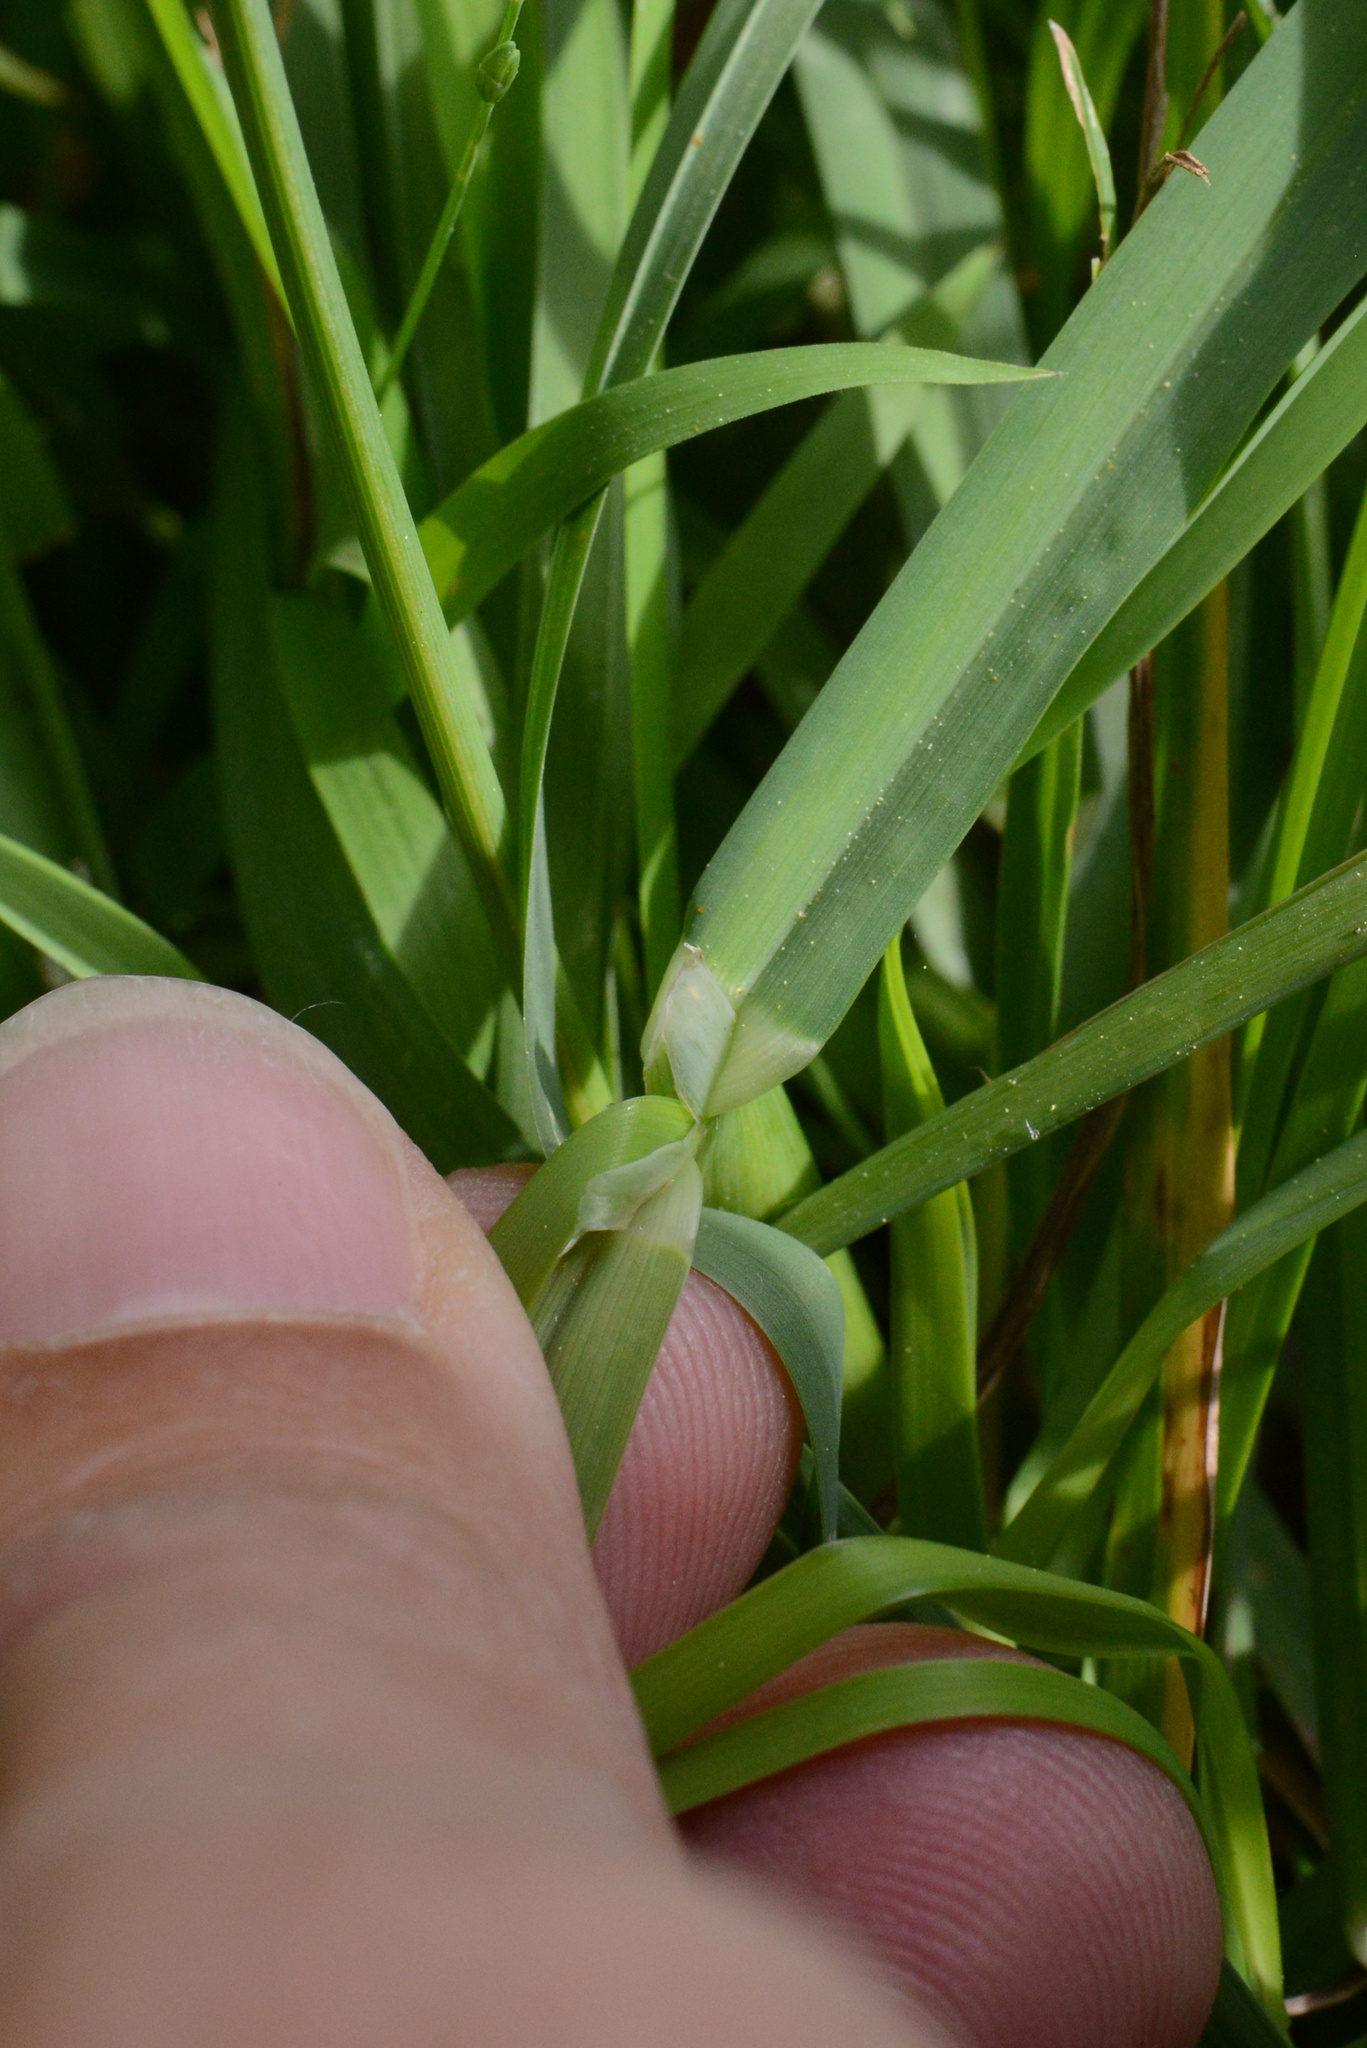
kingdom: Plantae
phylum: Tracheophyta
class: Liliopsida
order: Poales
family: Poaceae
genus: Dactylis
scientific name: Dactylis glomerata
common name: Orchardgrass
